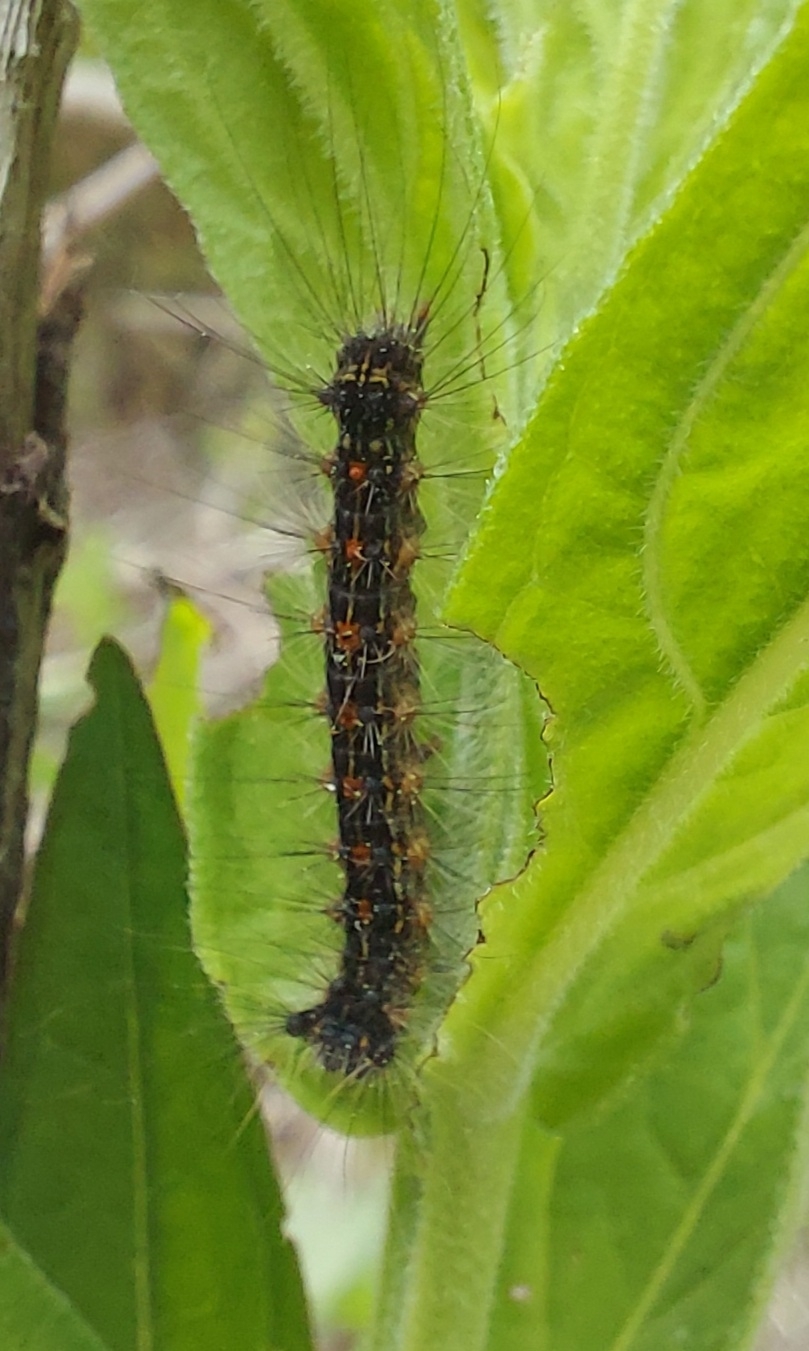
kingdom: Animalia
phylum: Arthropoda
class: Insecta
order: Lepidoptera
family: Erebidae
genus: Lymantria
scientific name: Lymantria dispar
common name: Gypsy moth
